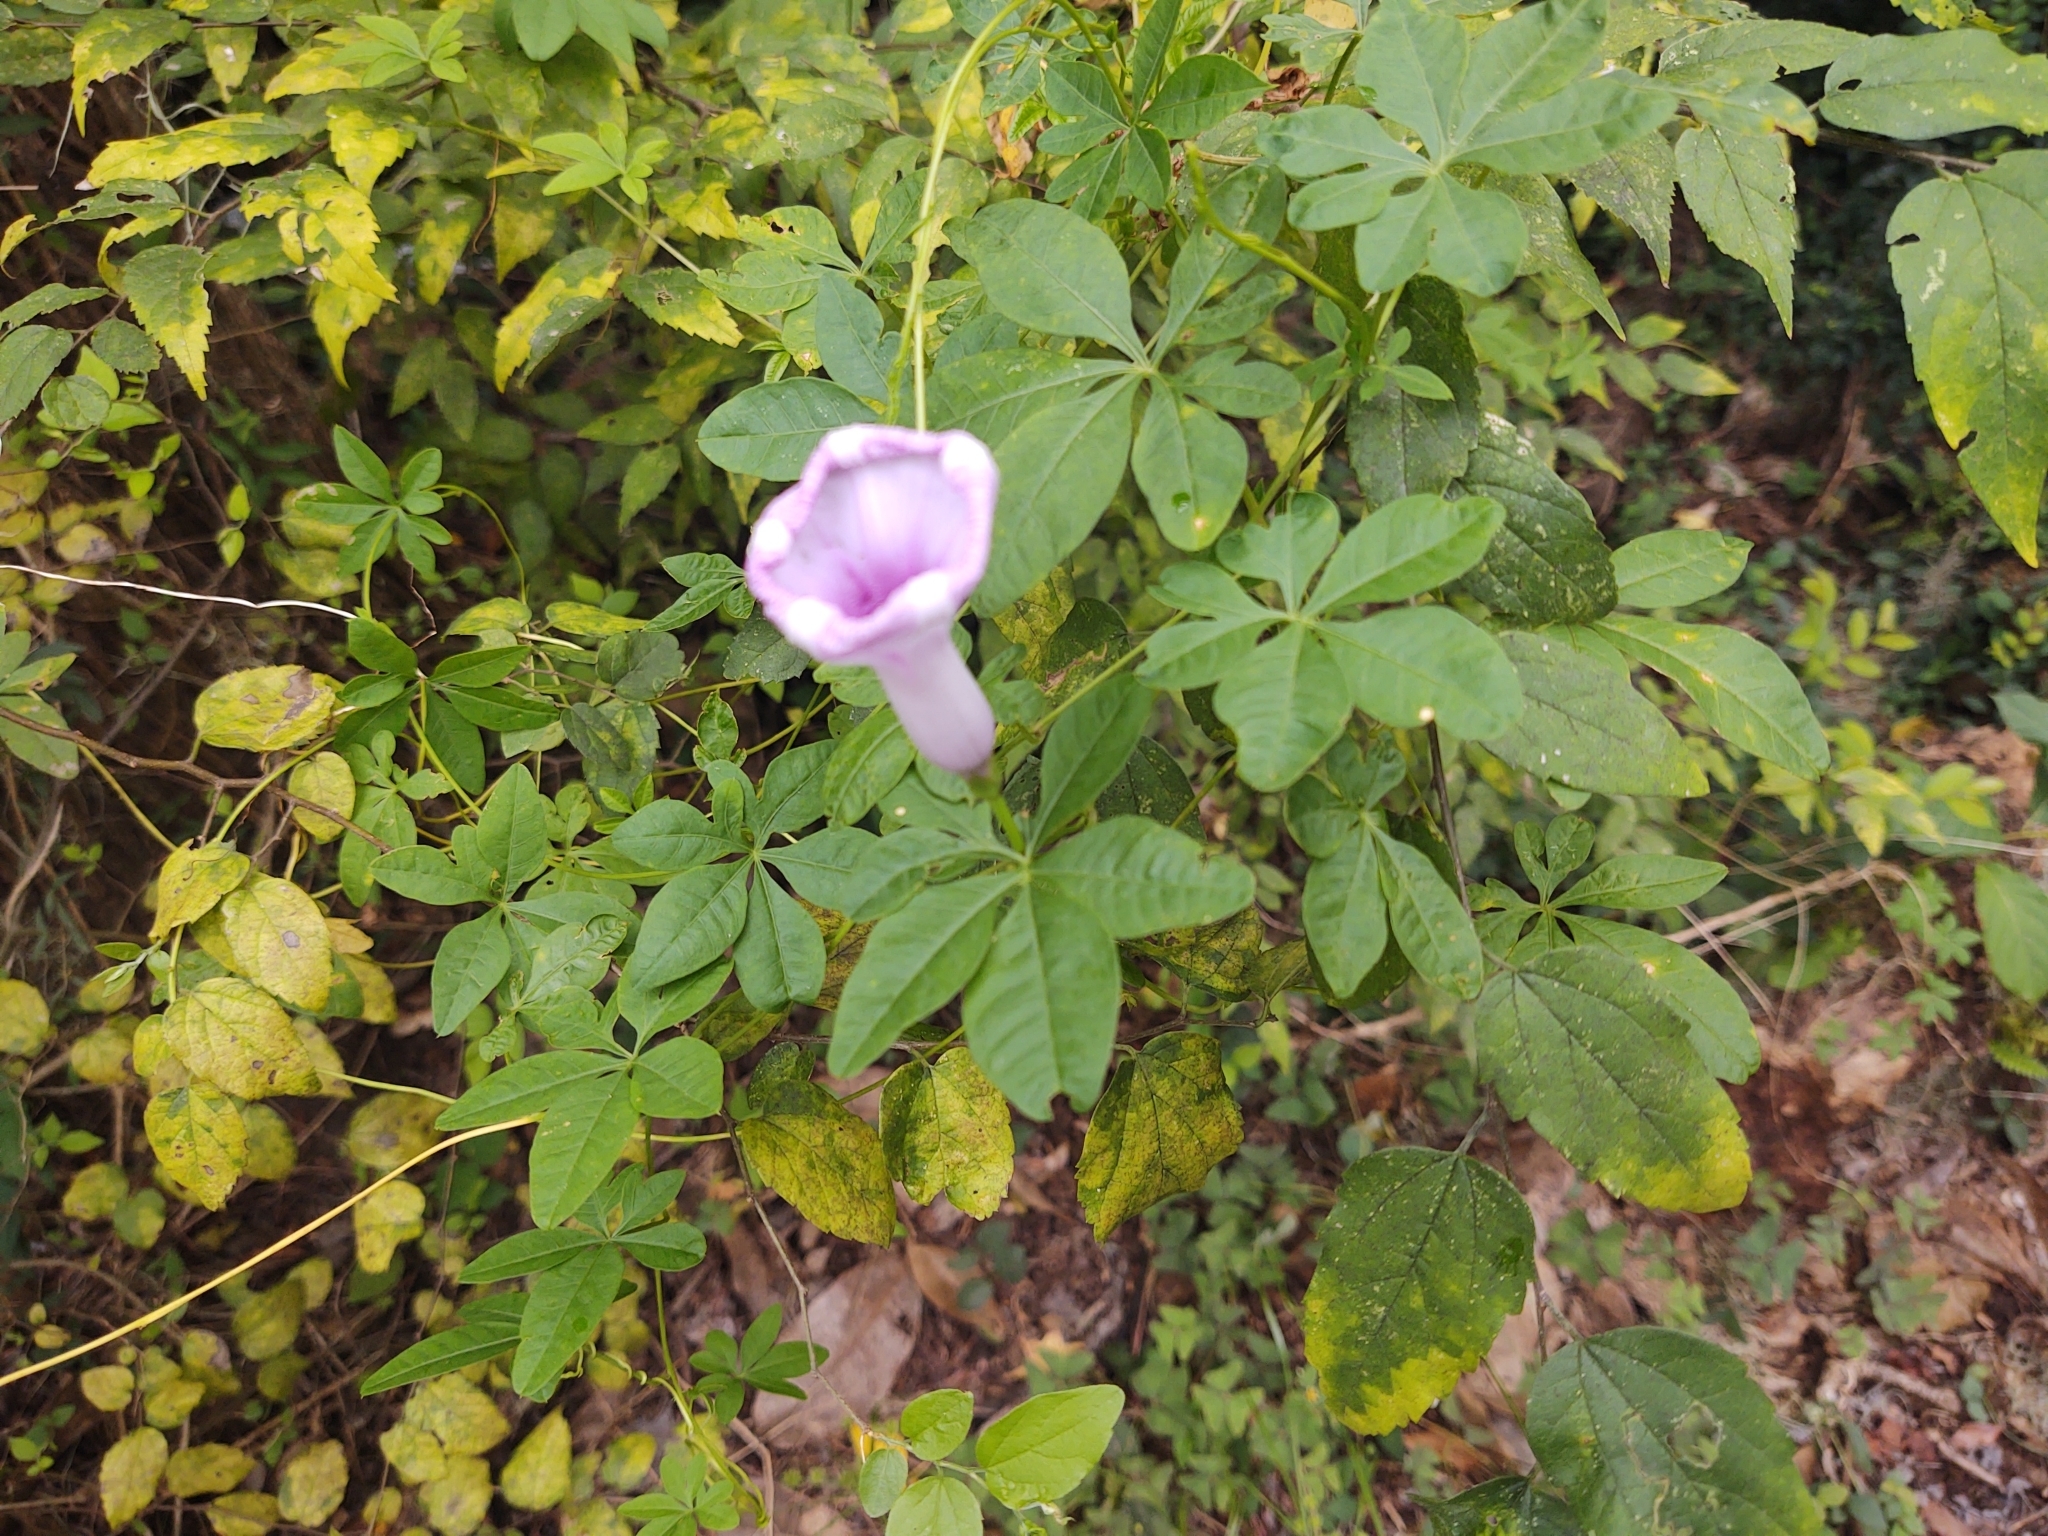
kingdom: Plantae
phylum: Tracheophyta
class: Magnoliopsida
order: Solanales
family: Convolvulaceae
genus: Ipomoea
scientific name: Ipomoea cairica
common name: Mile a minute vine
